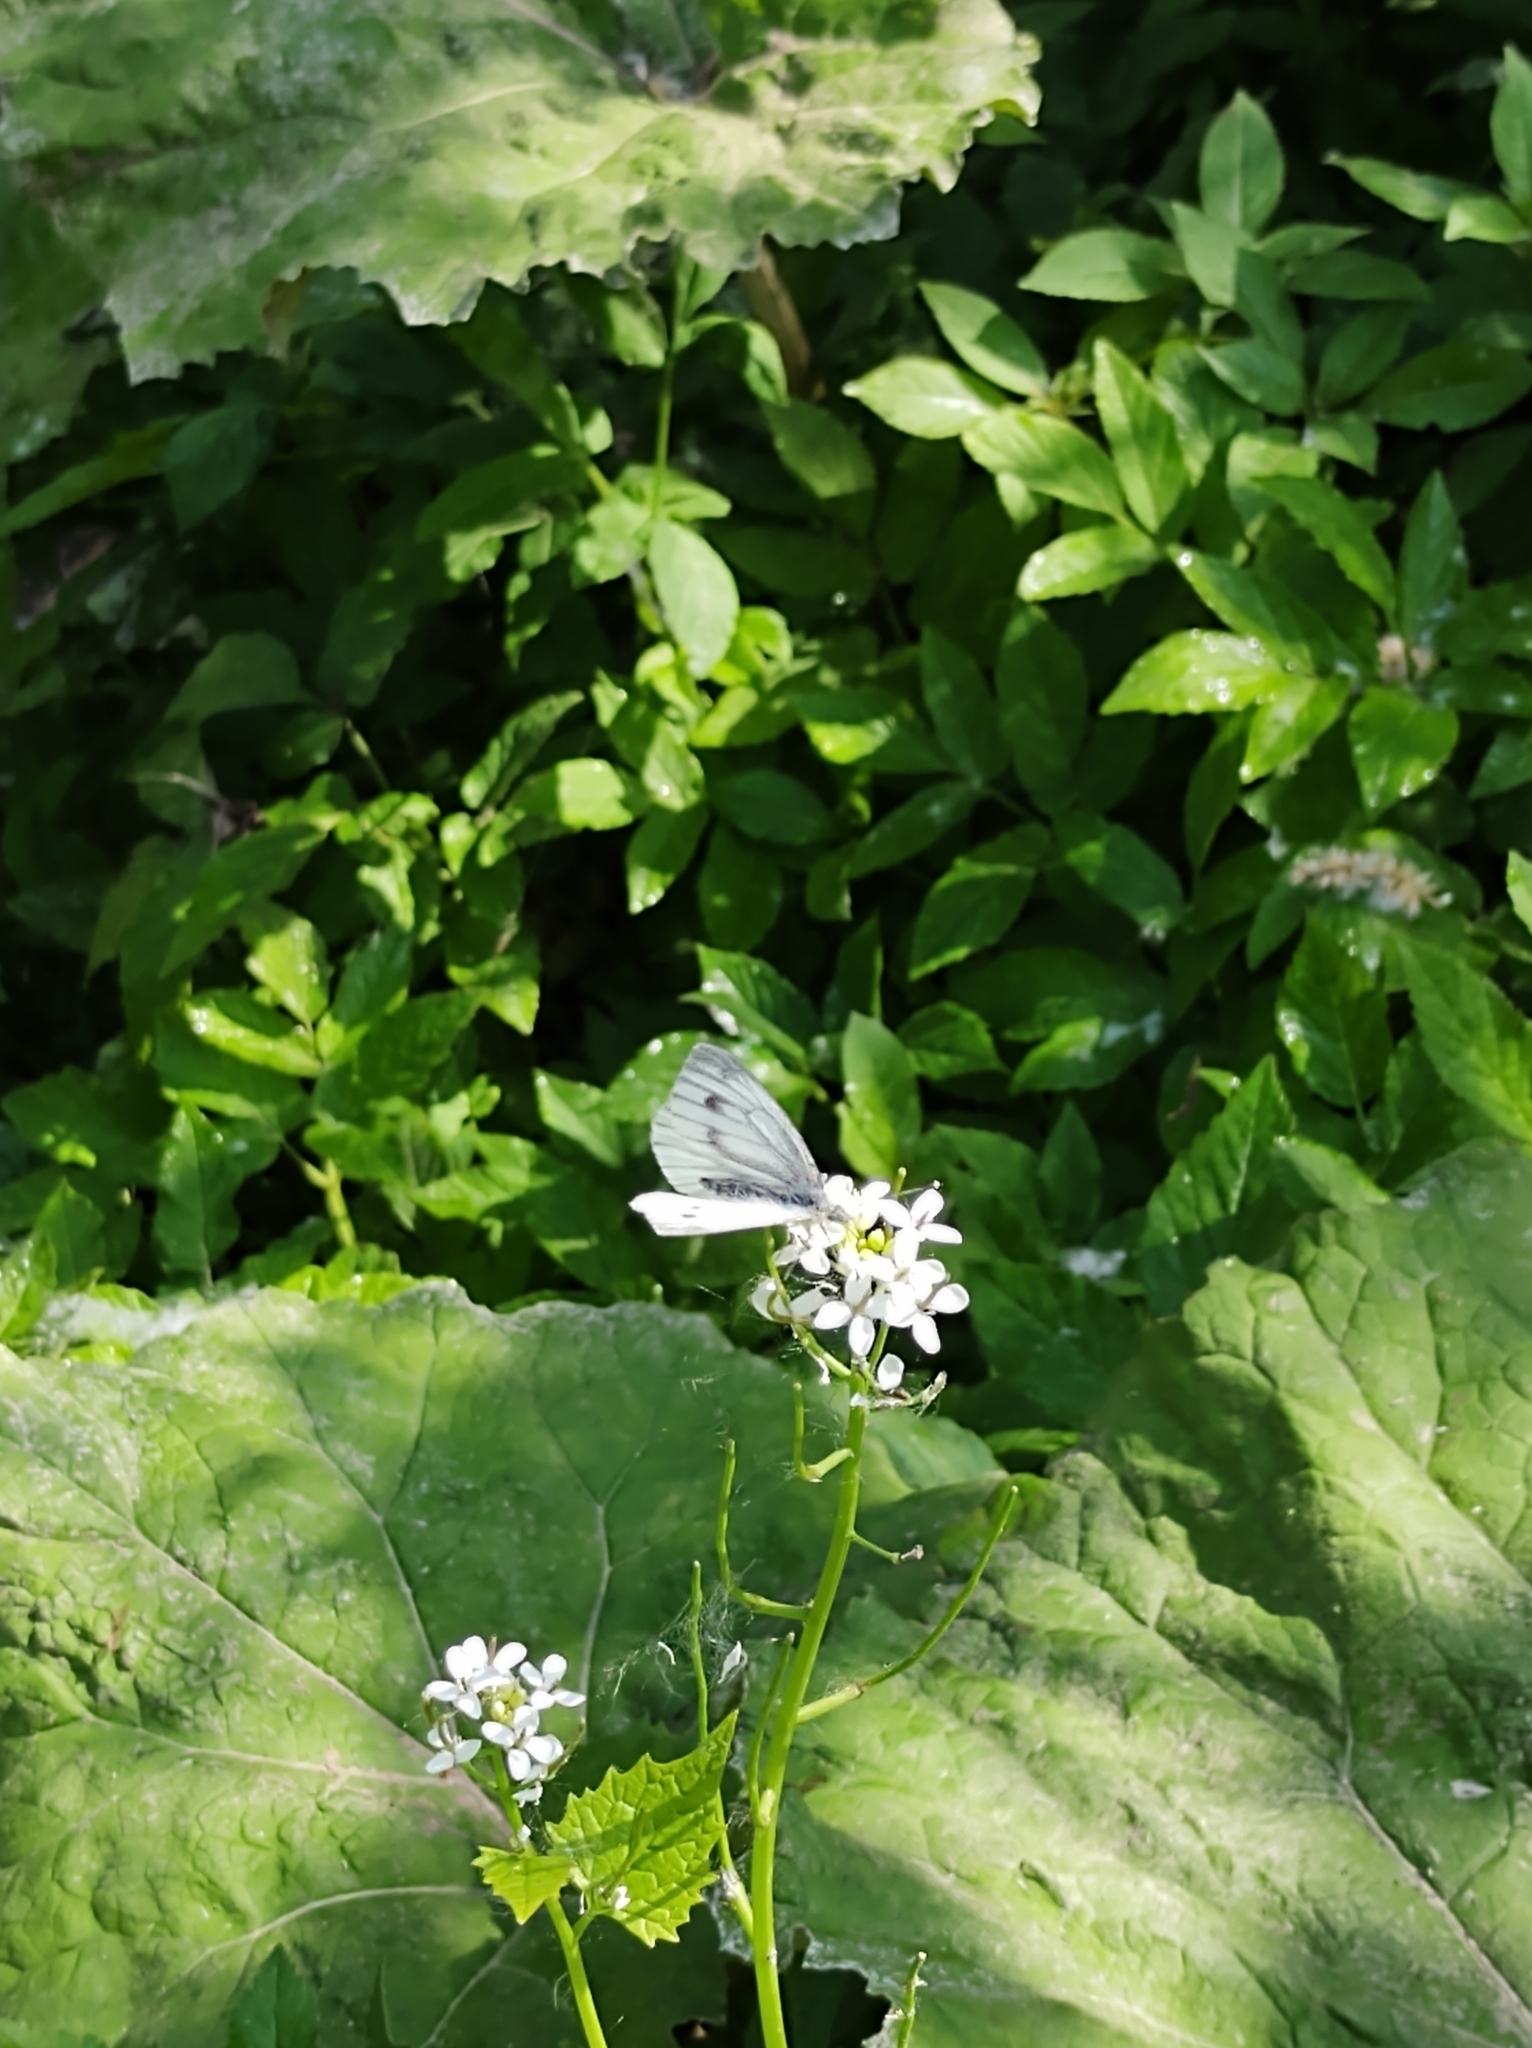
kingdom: Animalia
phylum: Arthropoda
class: Insecta
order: Lepidoptera
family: Pieridae
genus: Pieris
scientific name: Pieris napi
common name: Green-veined white
